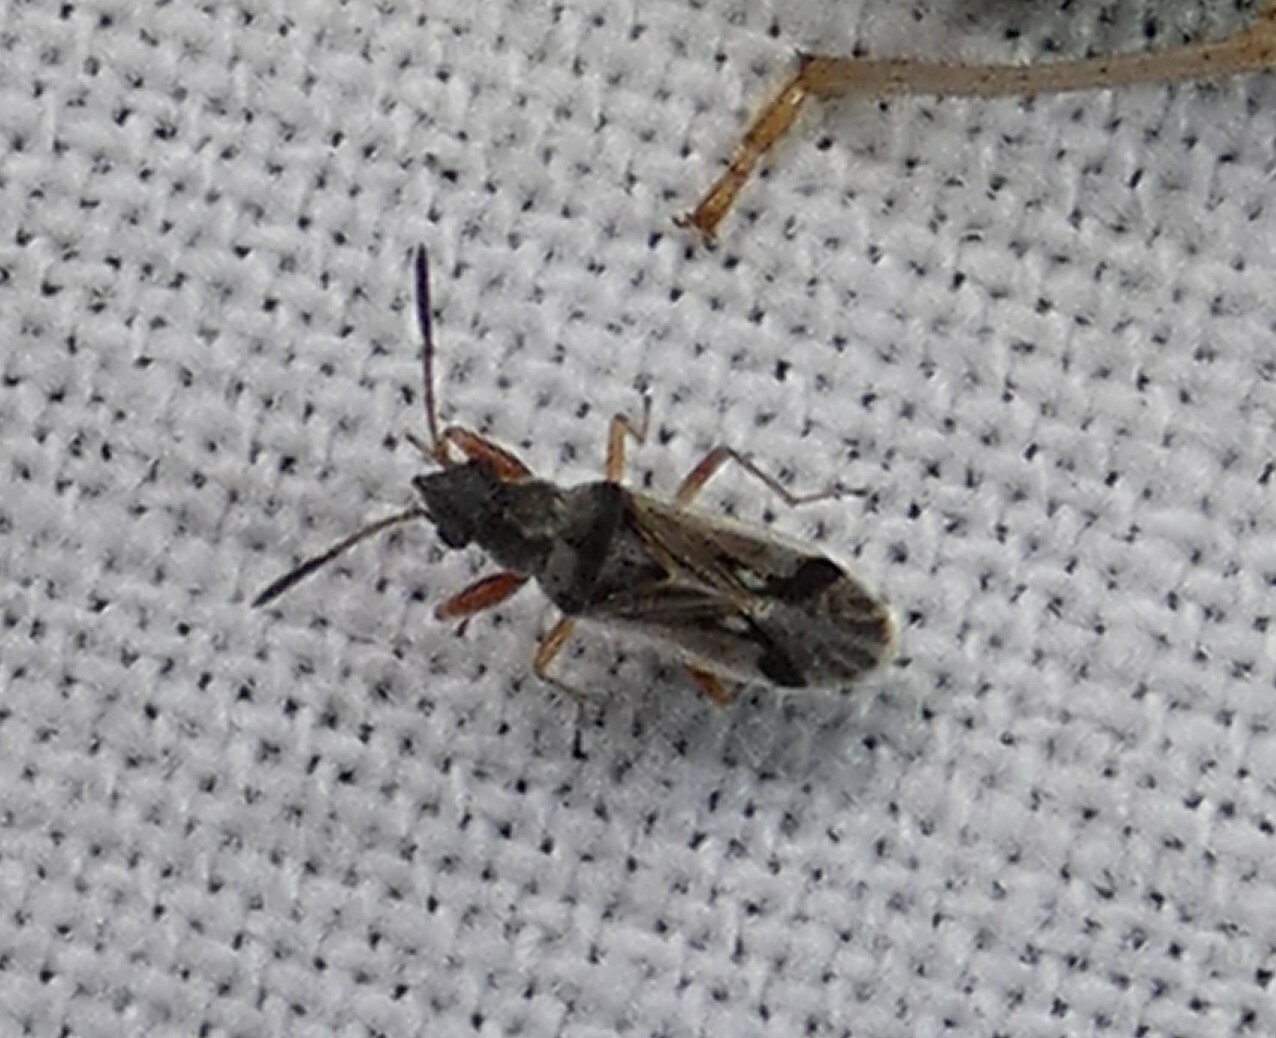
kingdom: Animalia
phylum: Arthropoda
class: Insecta
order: Hemiptera
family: Rhyparochromidae
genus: Pseudopachybrachius
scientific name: Pseudopachybrachius vinctus
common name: Dirt-colored seed bug
